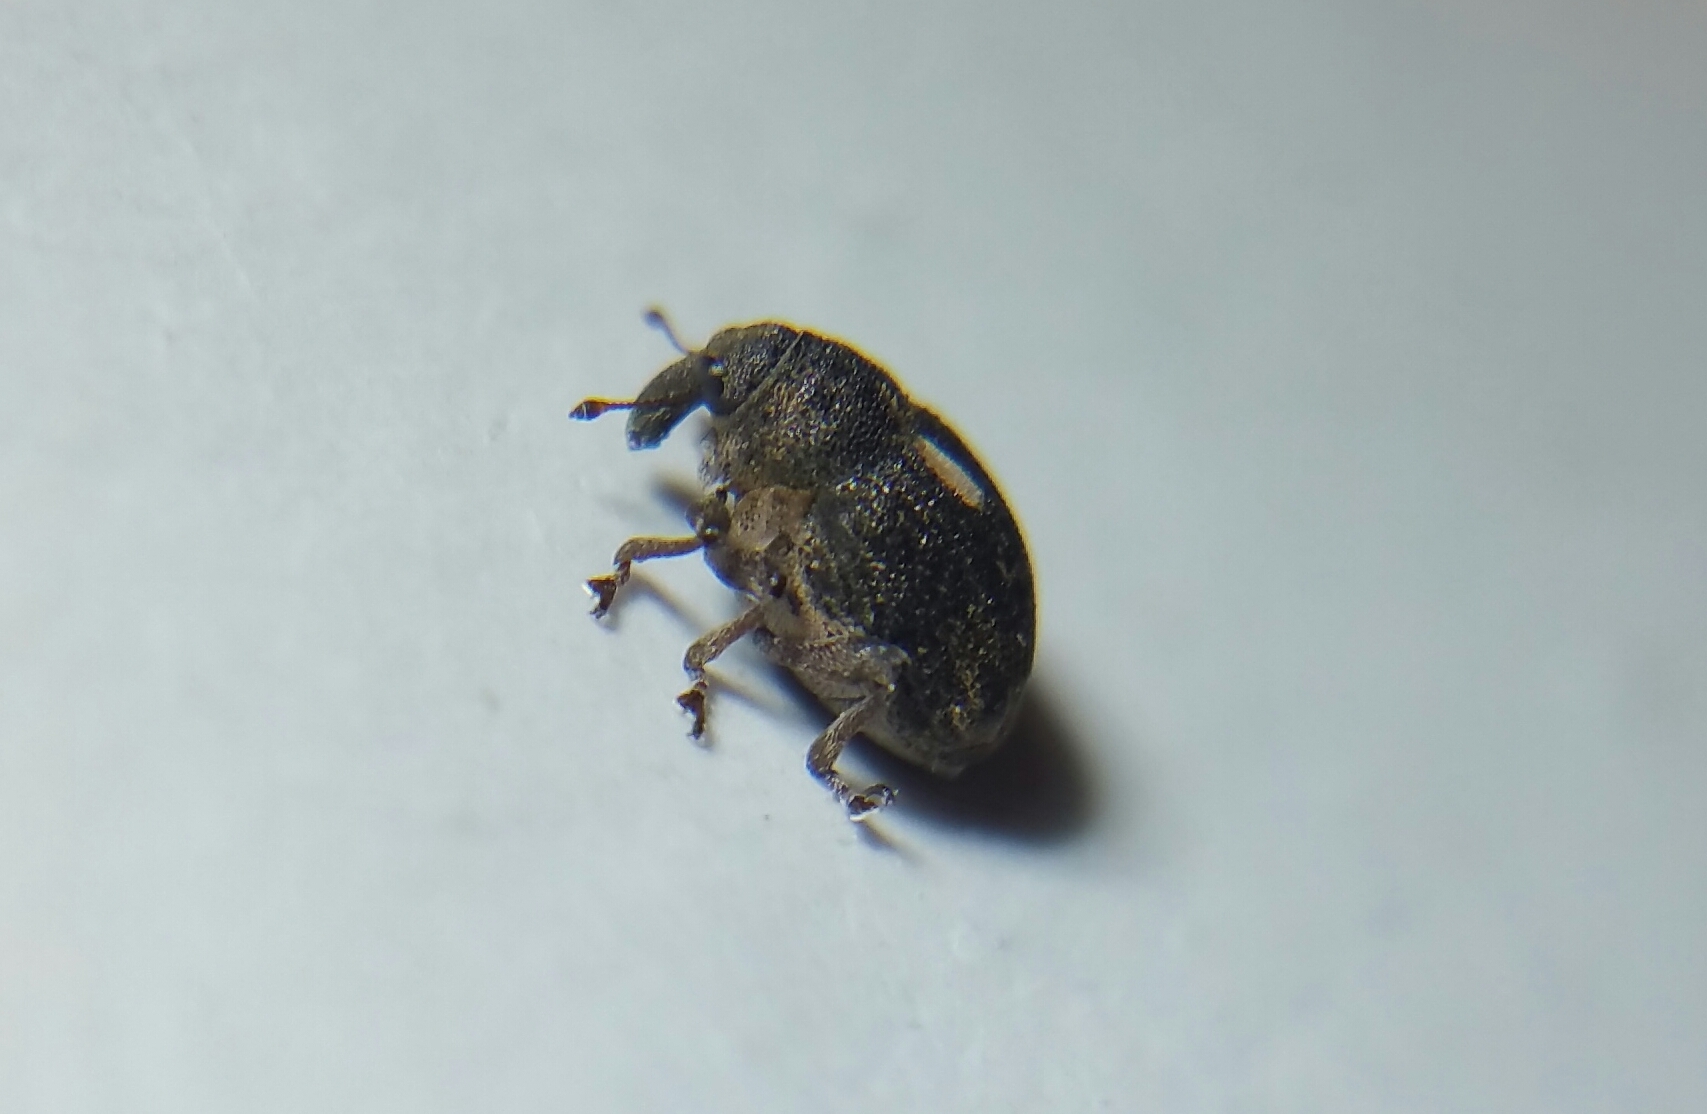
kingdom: Animalia
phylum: Arthropoda
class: Insecta
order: Coleoptera
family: Curculionidae
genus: Rhinoncus
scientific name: Rhinoncus leucostigma
